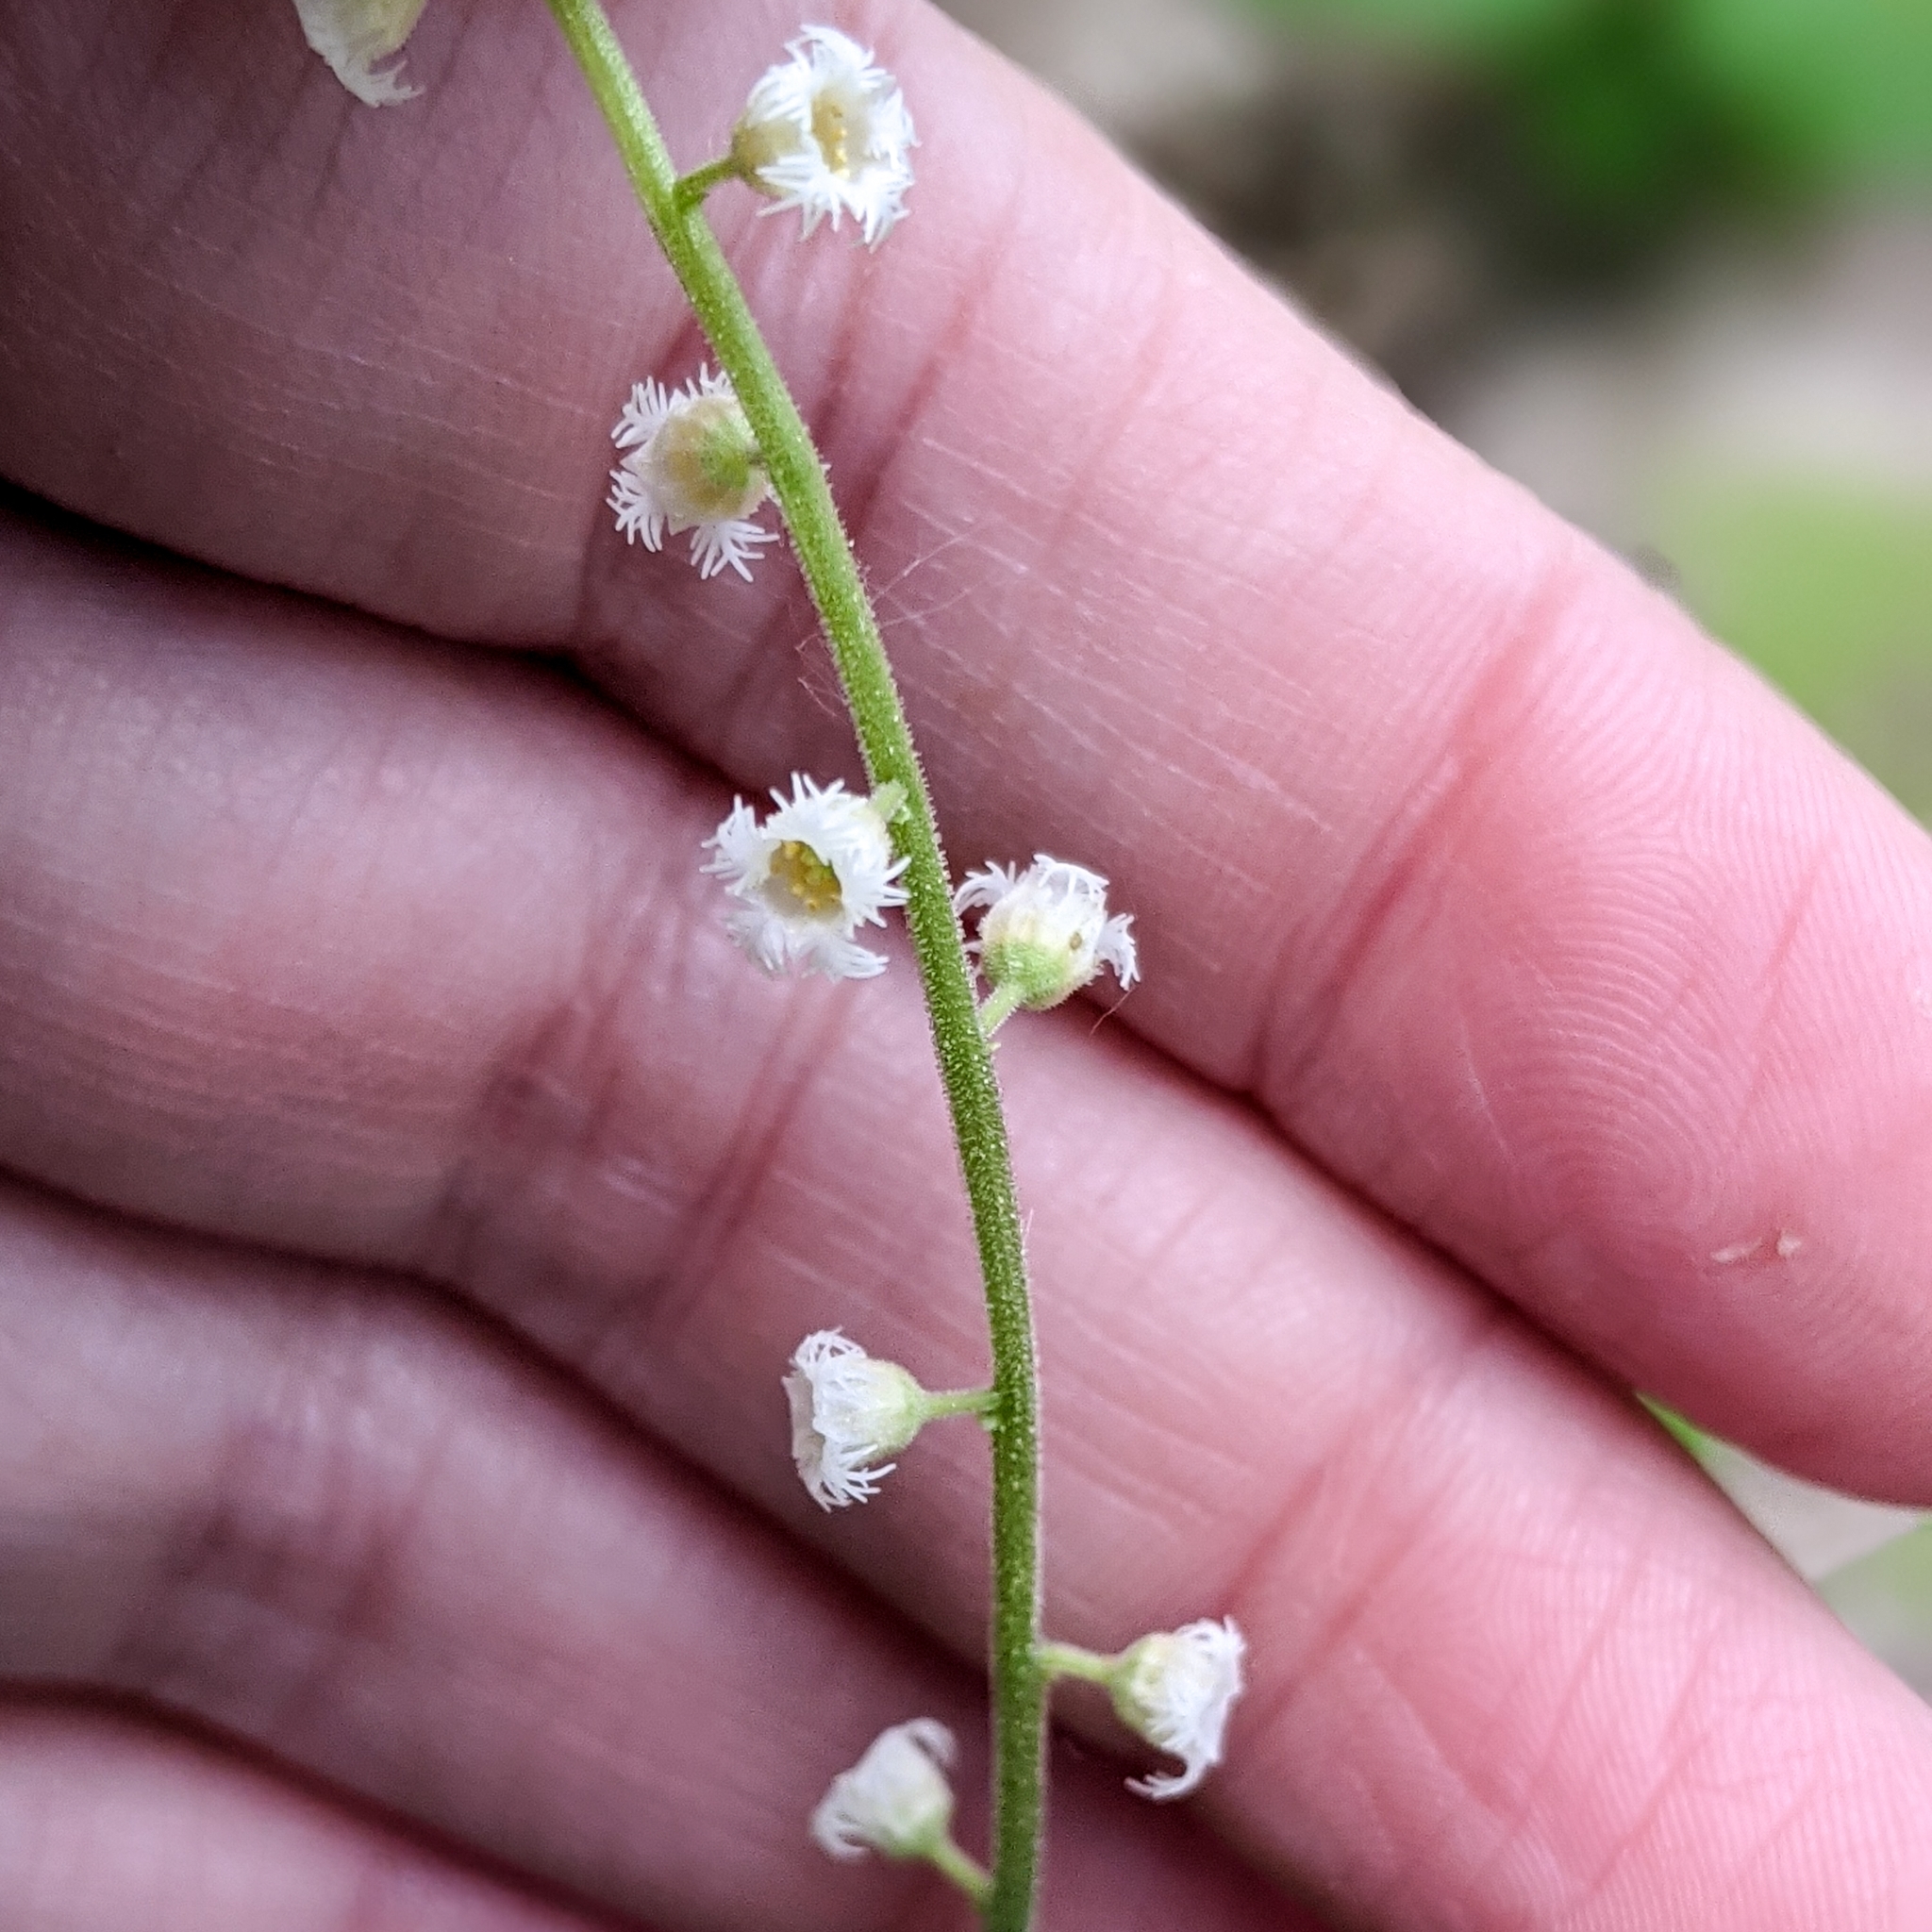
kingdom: Plantae
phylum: Tracheophyta
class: Magnoliopsida
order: Saxifragales
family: Saxifragaceae
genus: Mitella
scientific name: Mitella diphylla
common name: Coolwort
